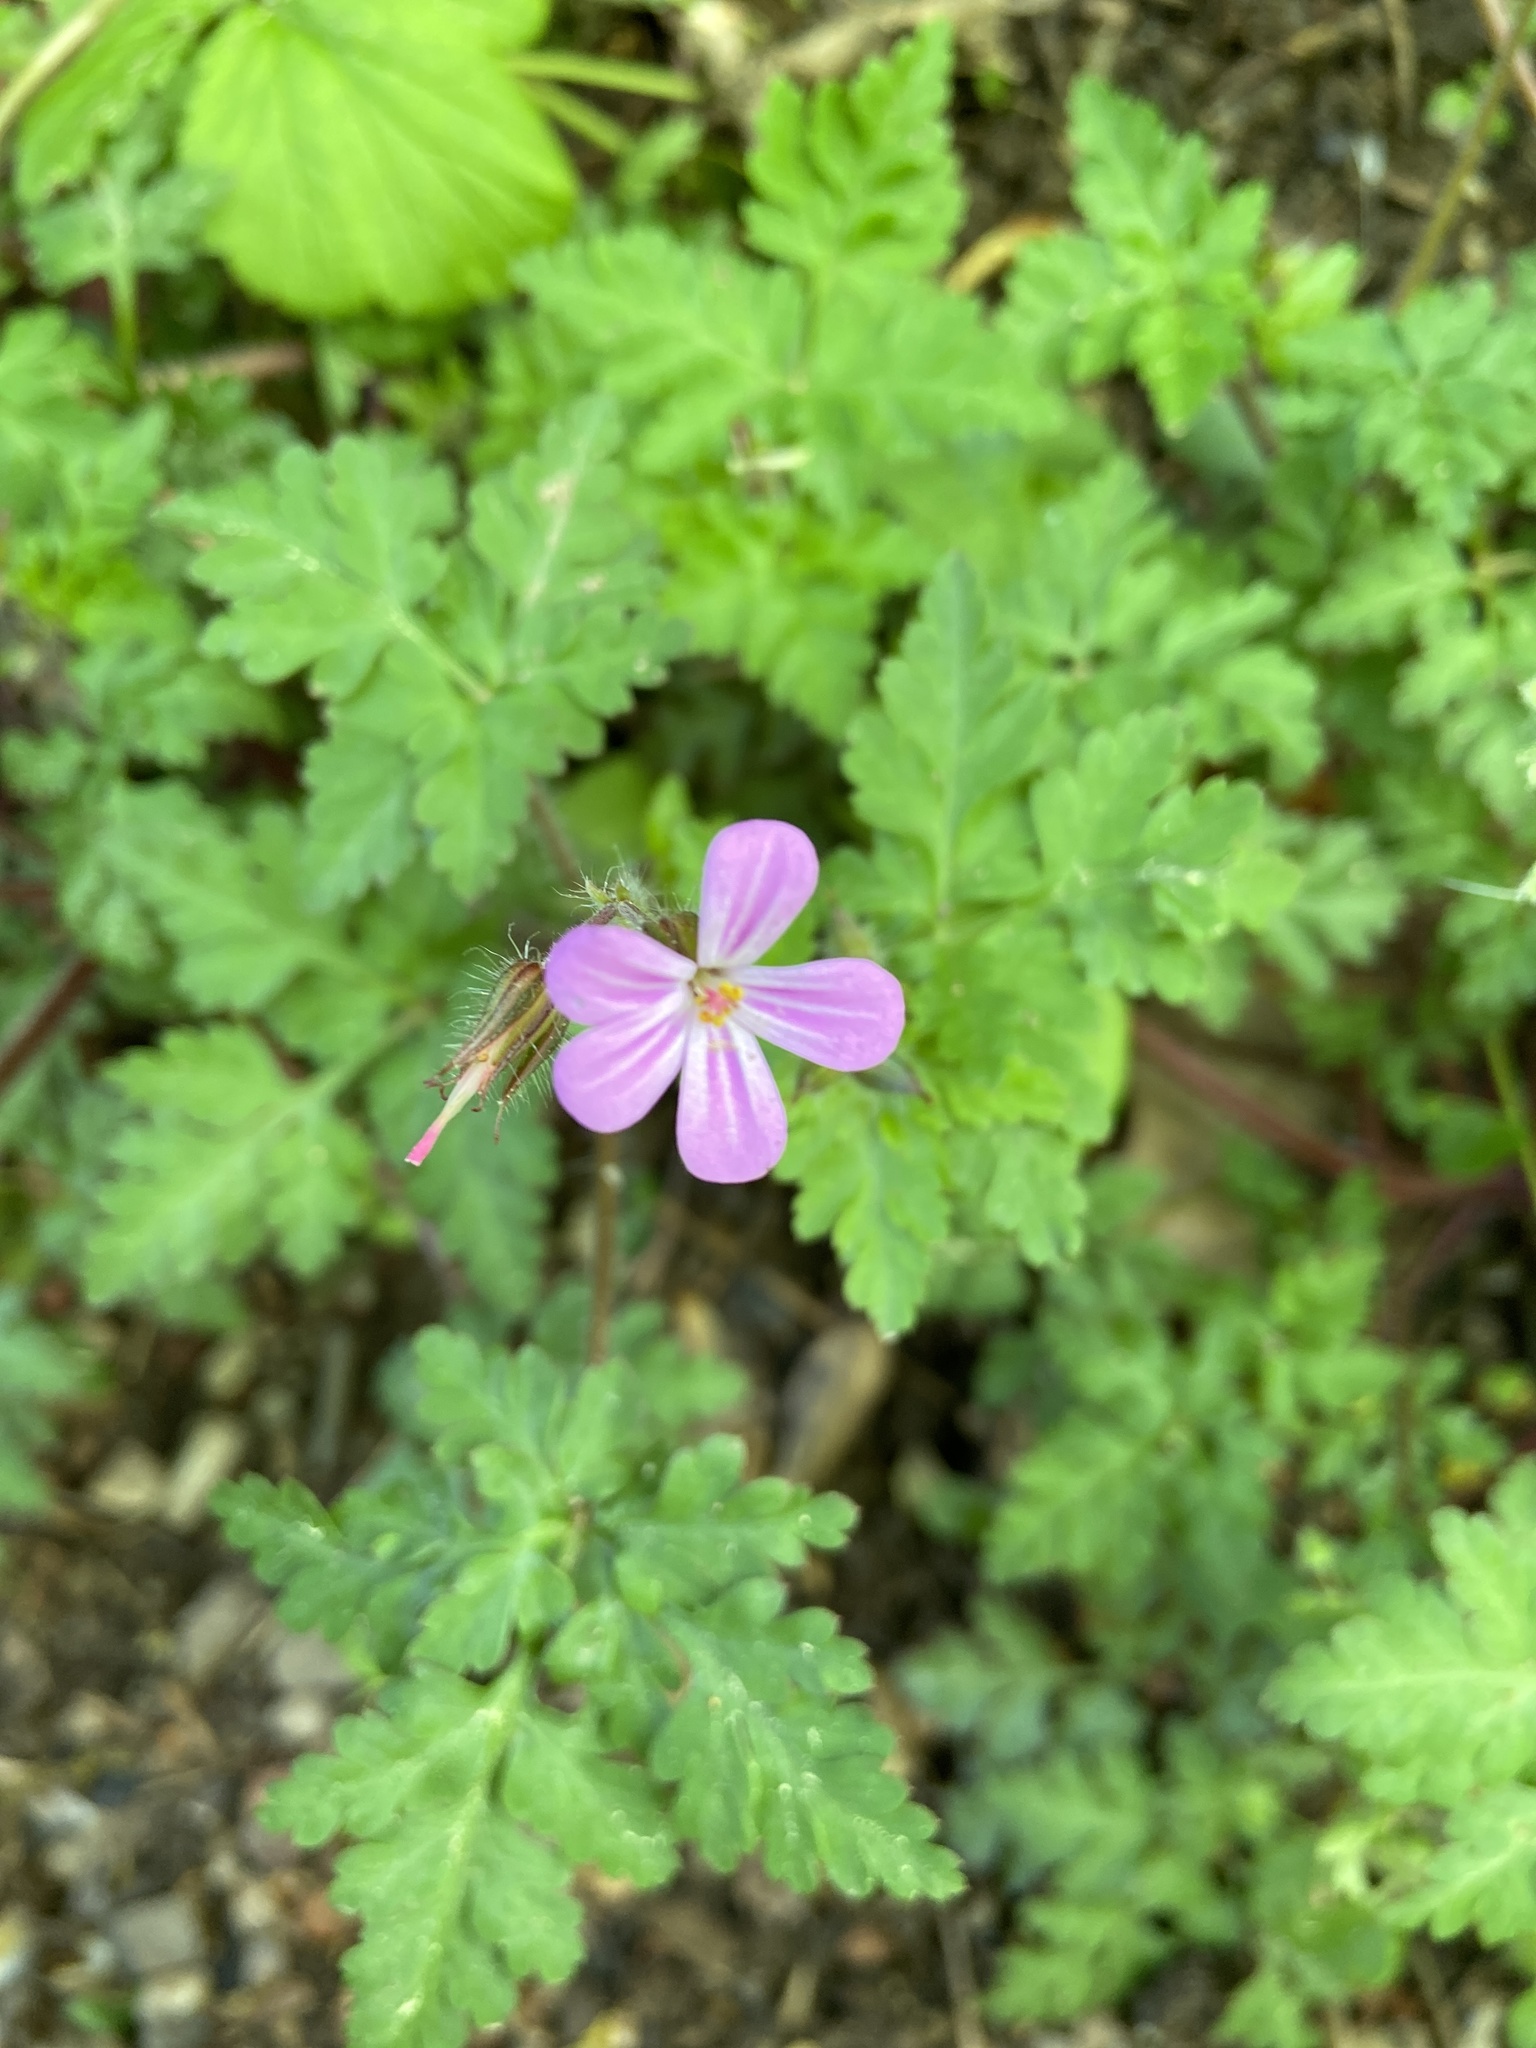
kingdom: Plantae
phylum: Tracheophyta
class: Magnoliopsida
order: Geraniales
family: Geraniaceae
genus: Geranium
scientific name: Geranium robertianum
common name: Herb-robert
